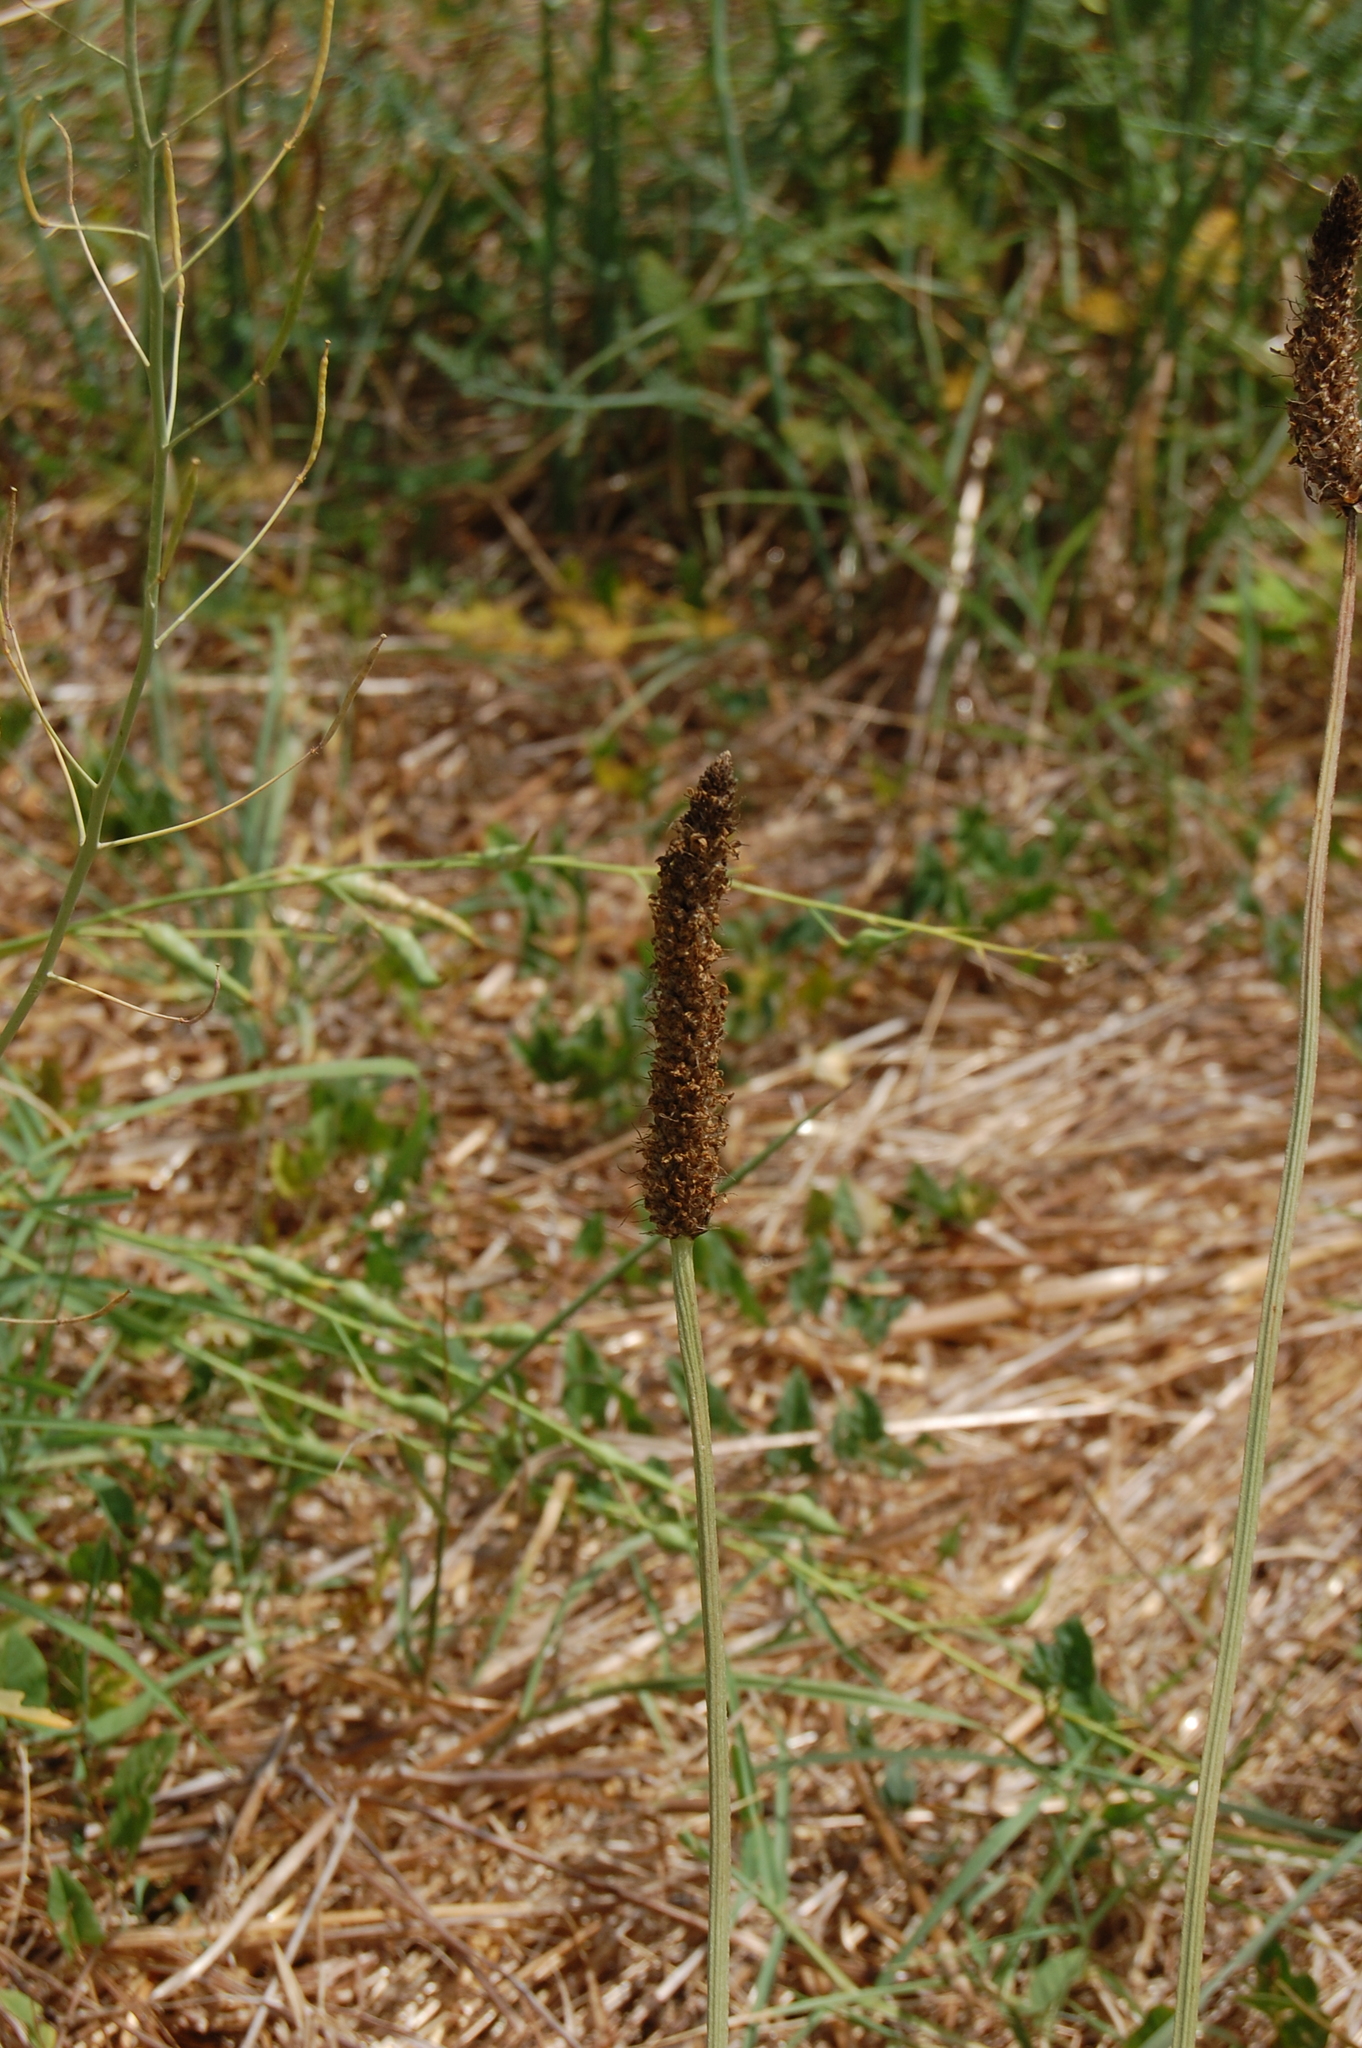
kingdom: Plantae
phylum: Tracheophyta
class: Magnoliopsida
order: Lamiales
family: Plantaginaceae
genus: Plantago
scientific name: Plantago lanceolata
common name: Ribwort plantain
